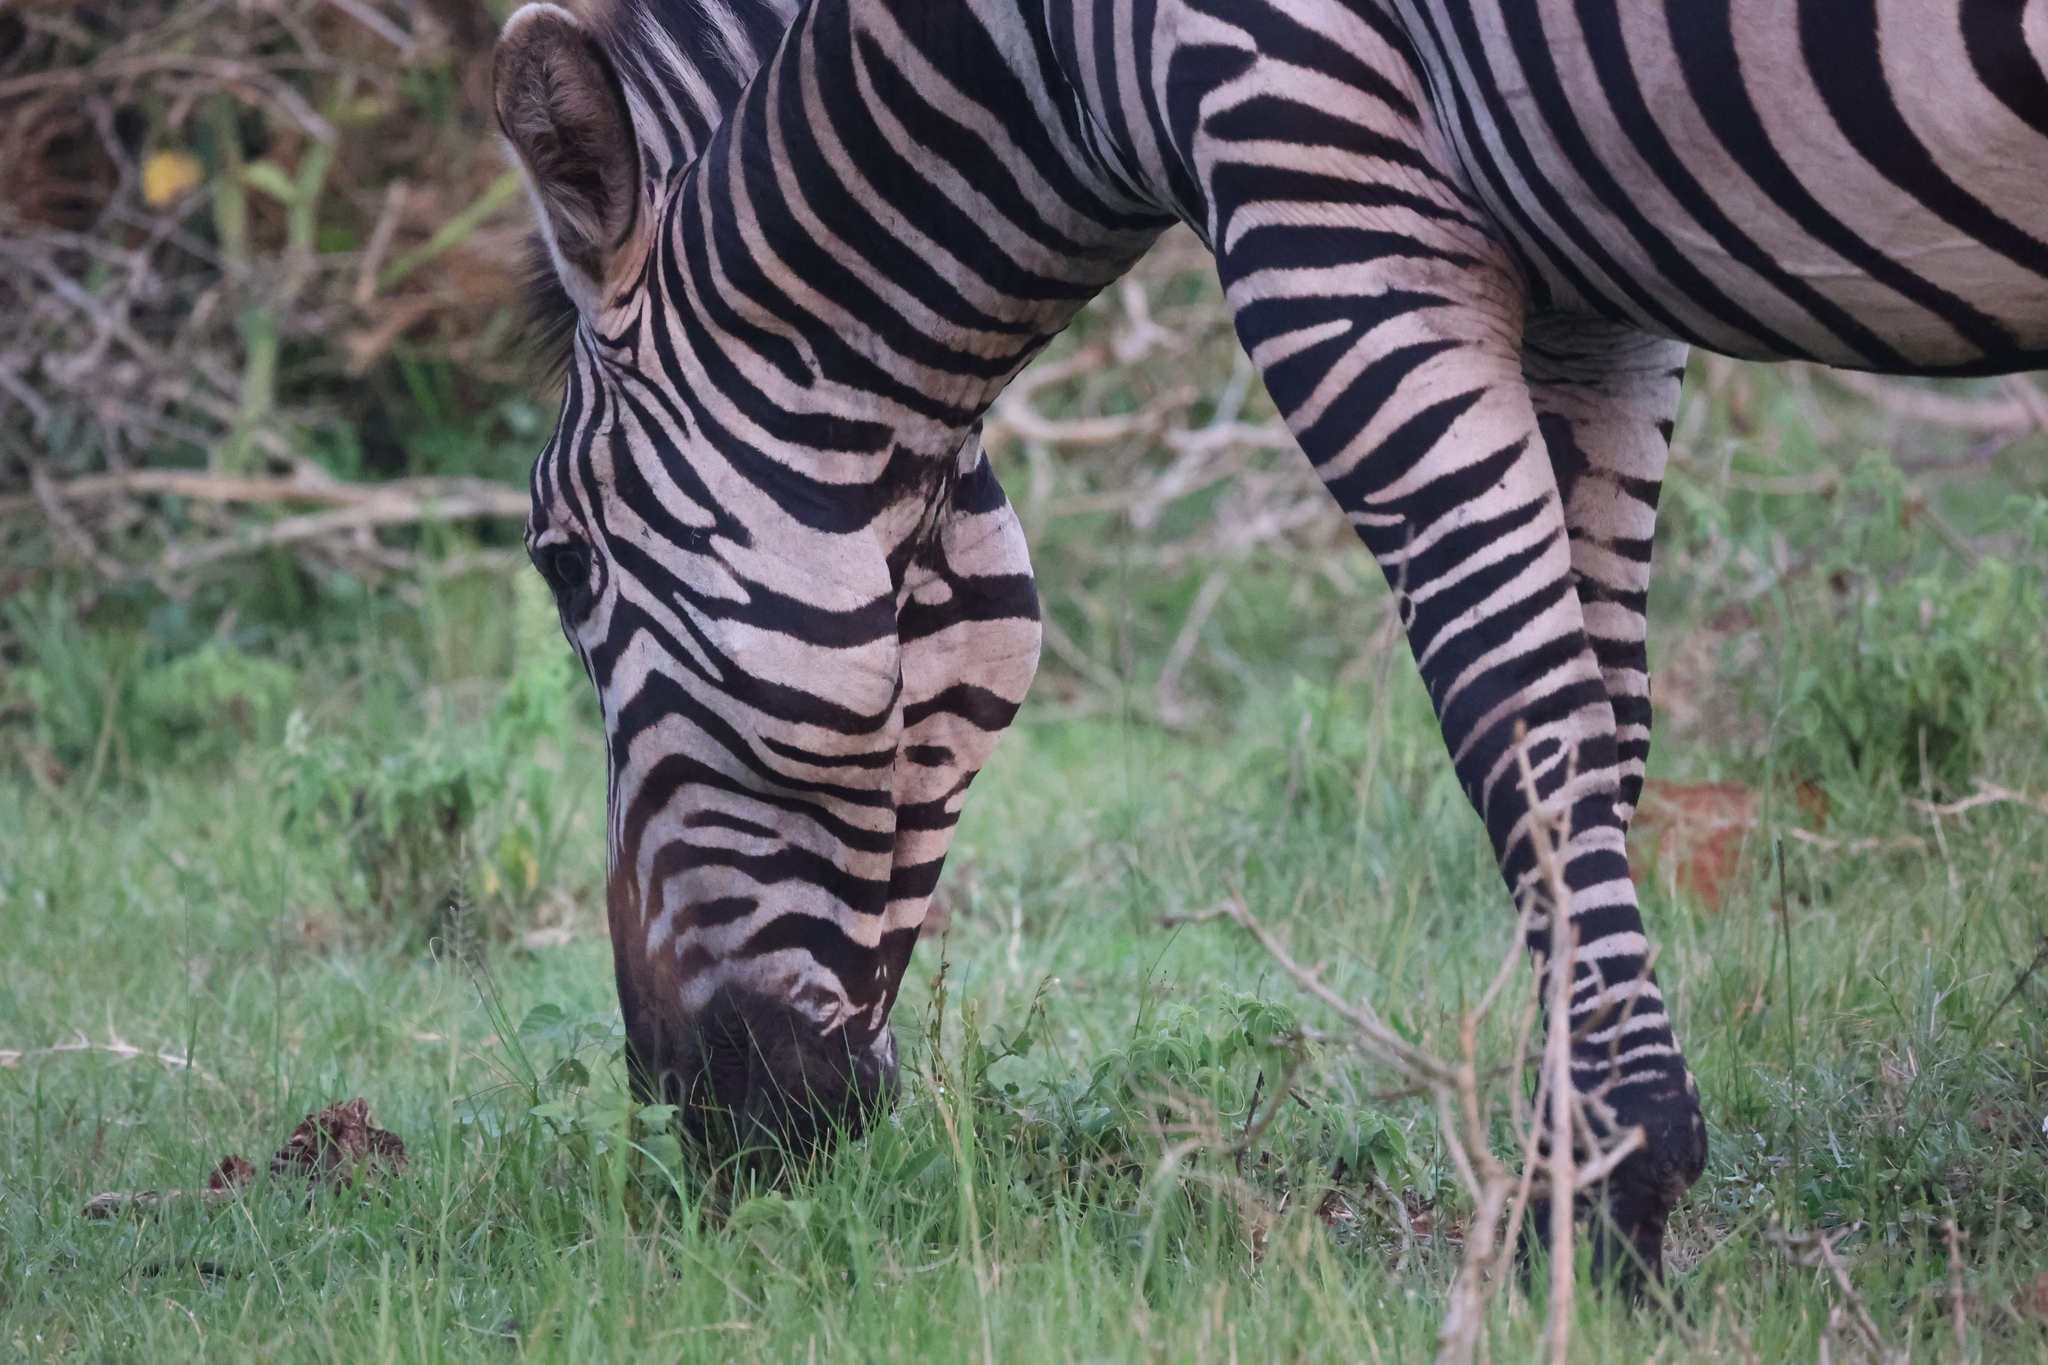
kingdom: Animalia
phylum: Chordata
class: Mammalia
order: Perissodactyla
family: Equidae
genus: Equus
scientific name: Equus quagga
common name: Plains zebra
